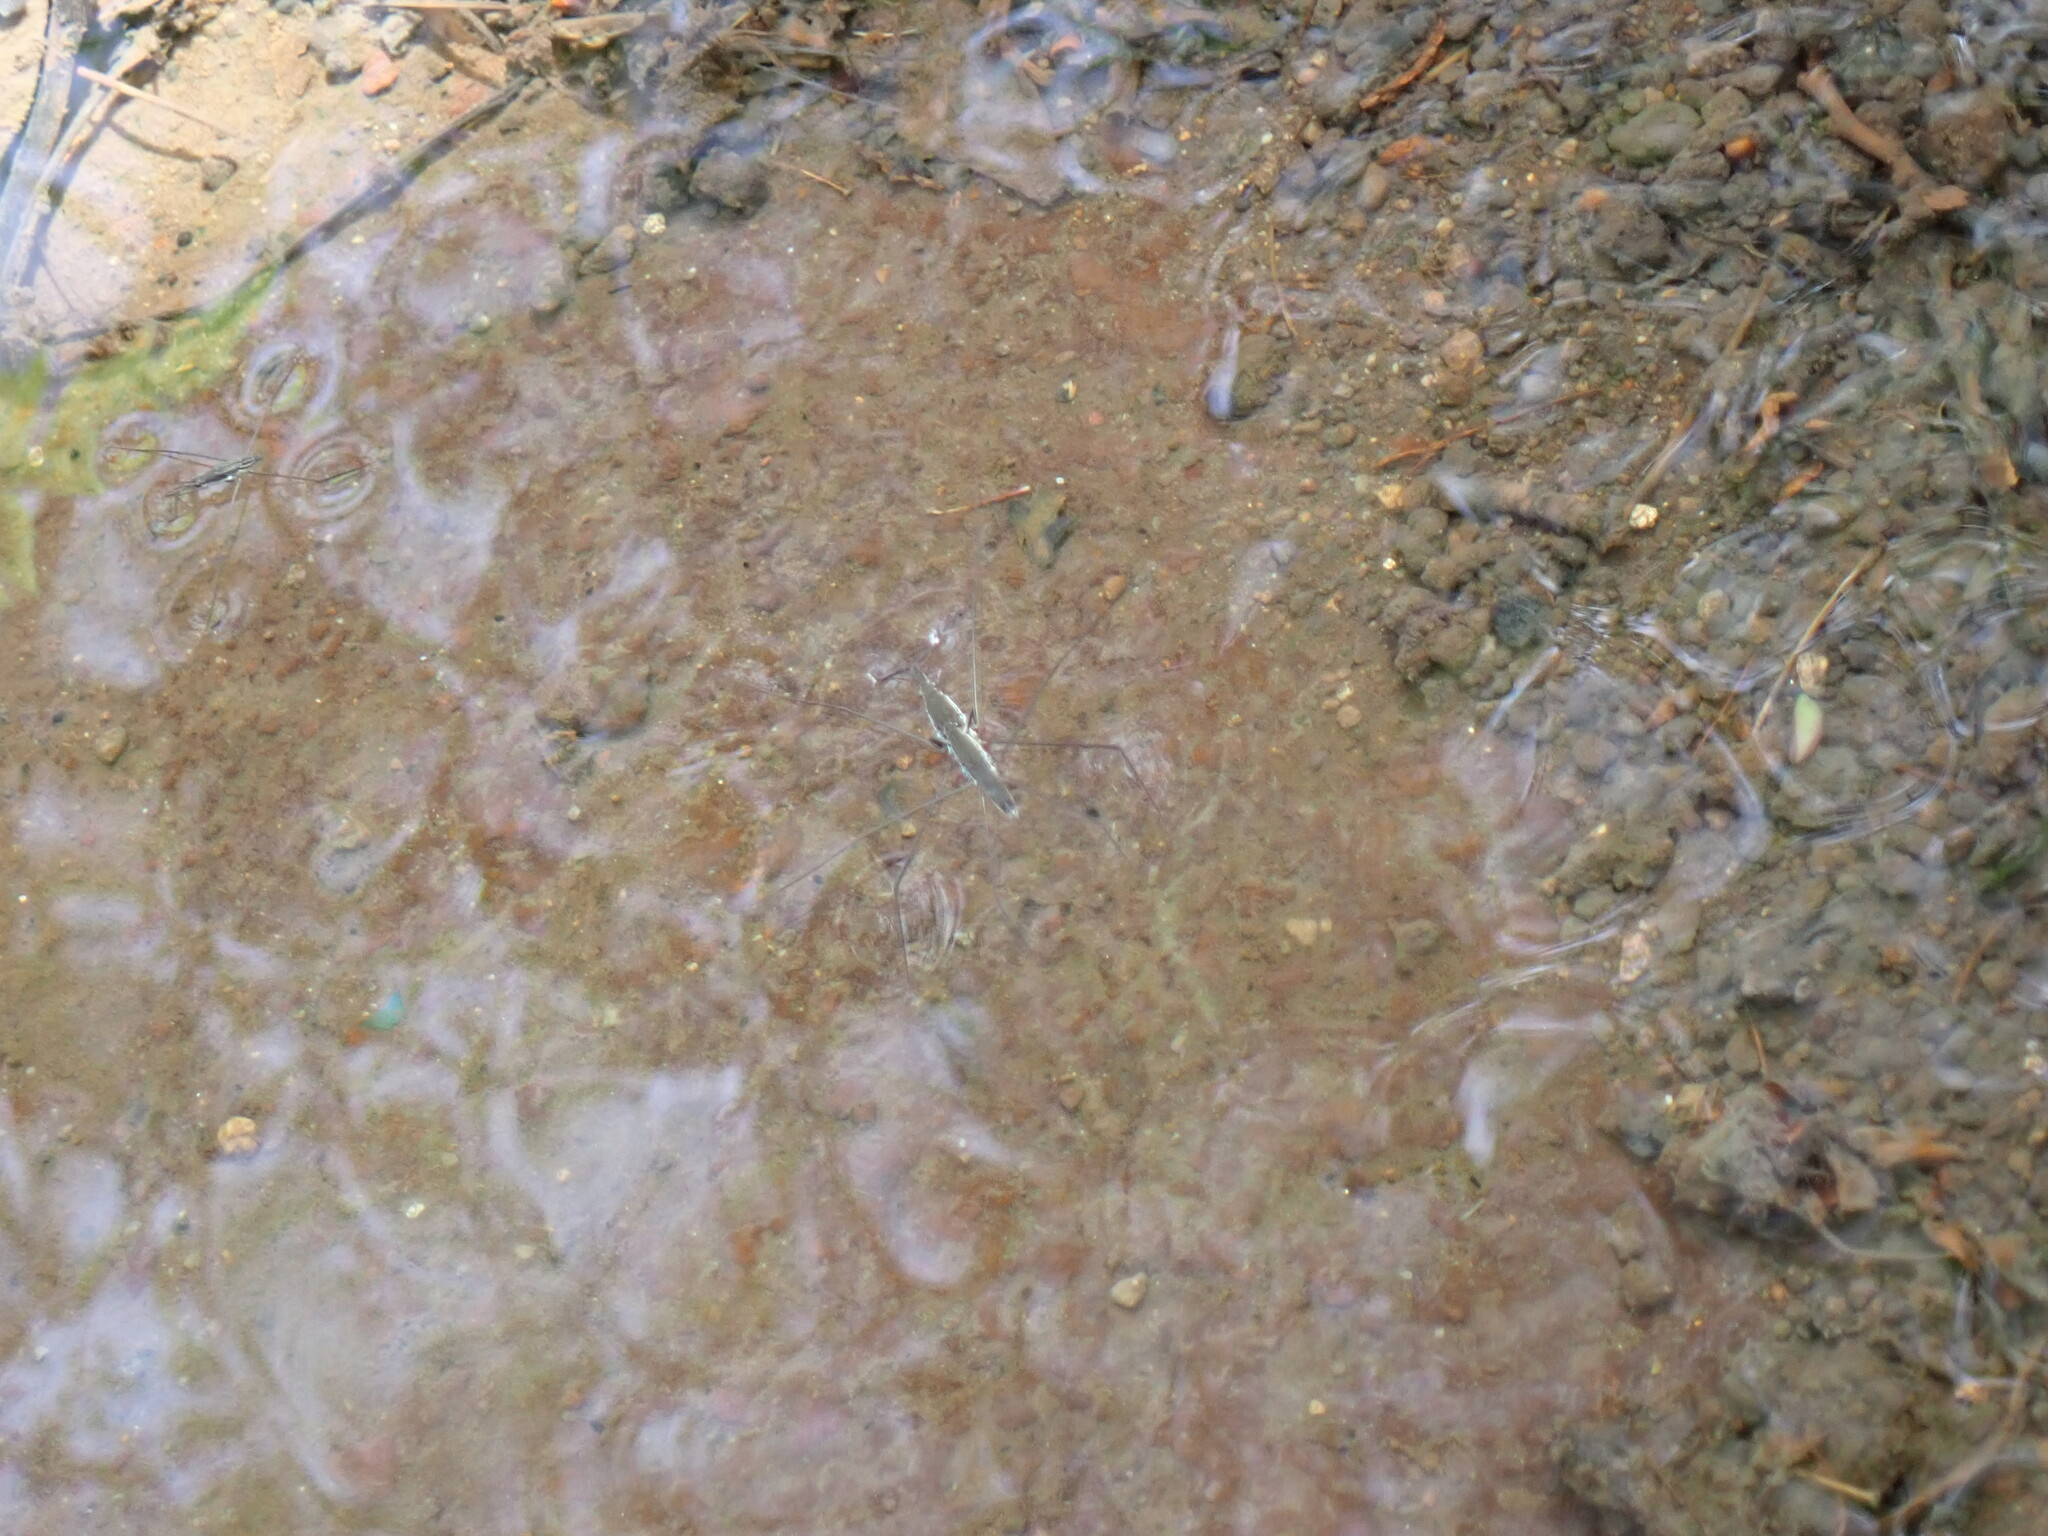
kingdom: Animalia
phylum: Arthropoda
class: Insecta
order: Hemiptera
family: Gerridae
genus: Aquarius
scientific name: Aquarius paludum
